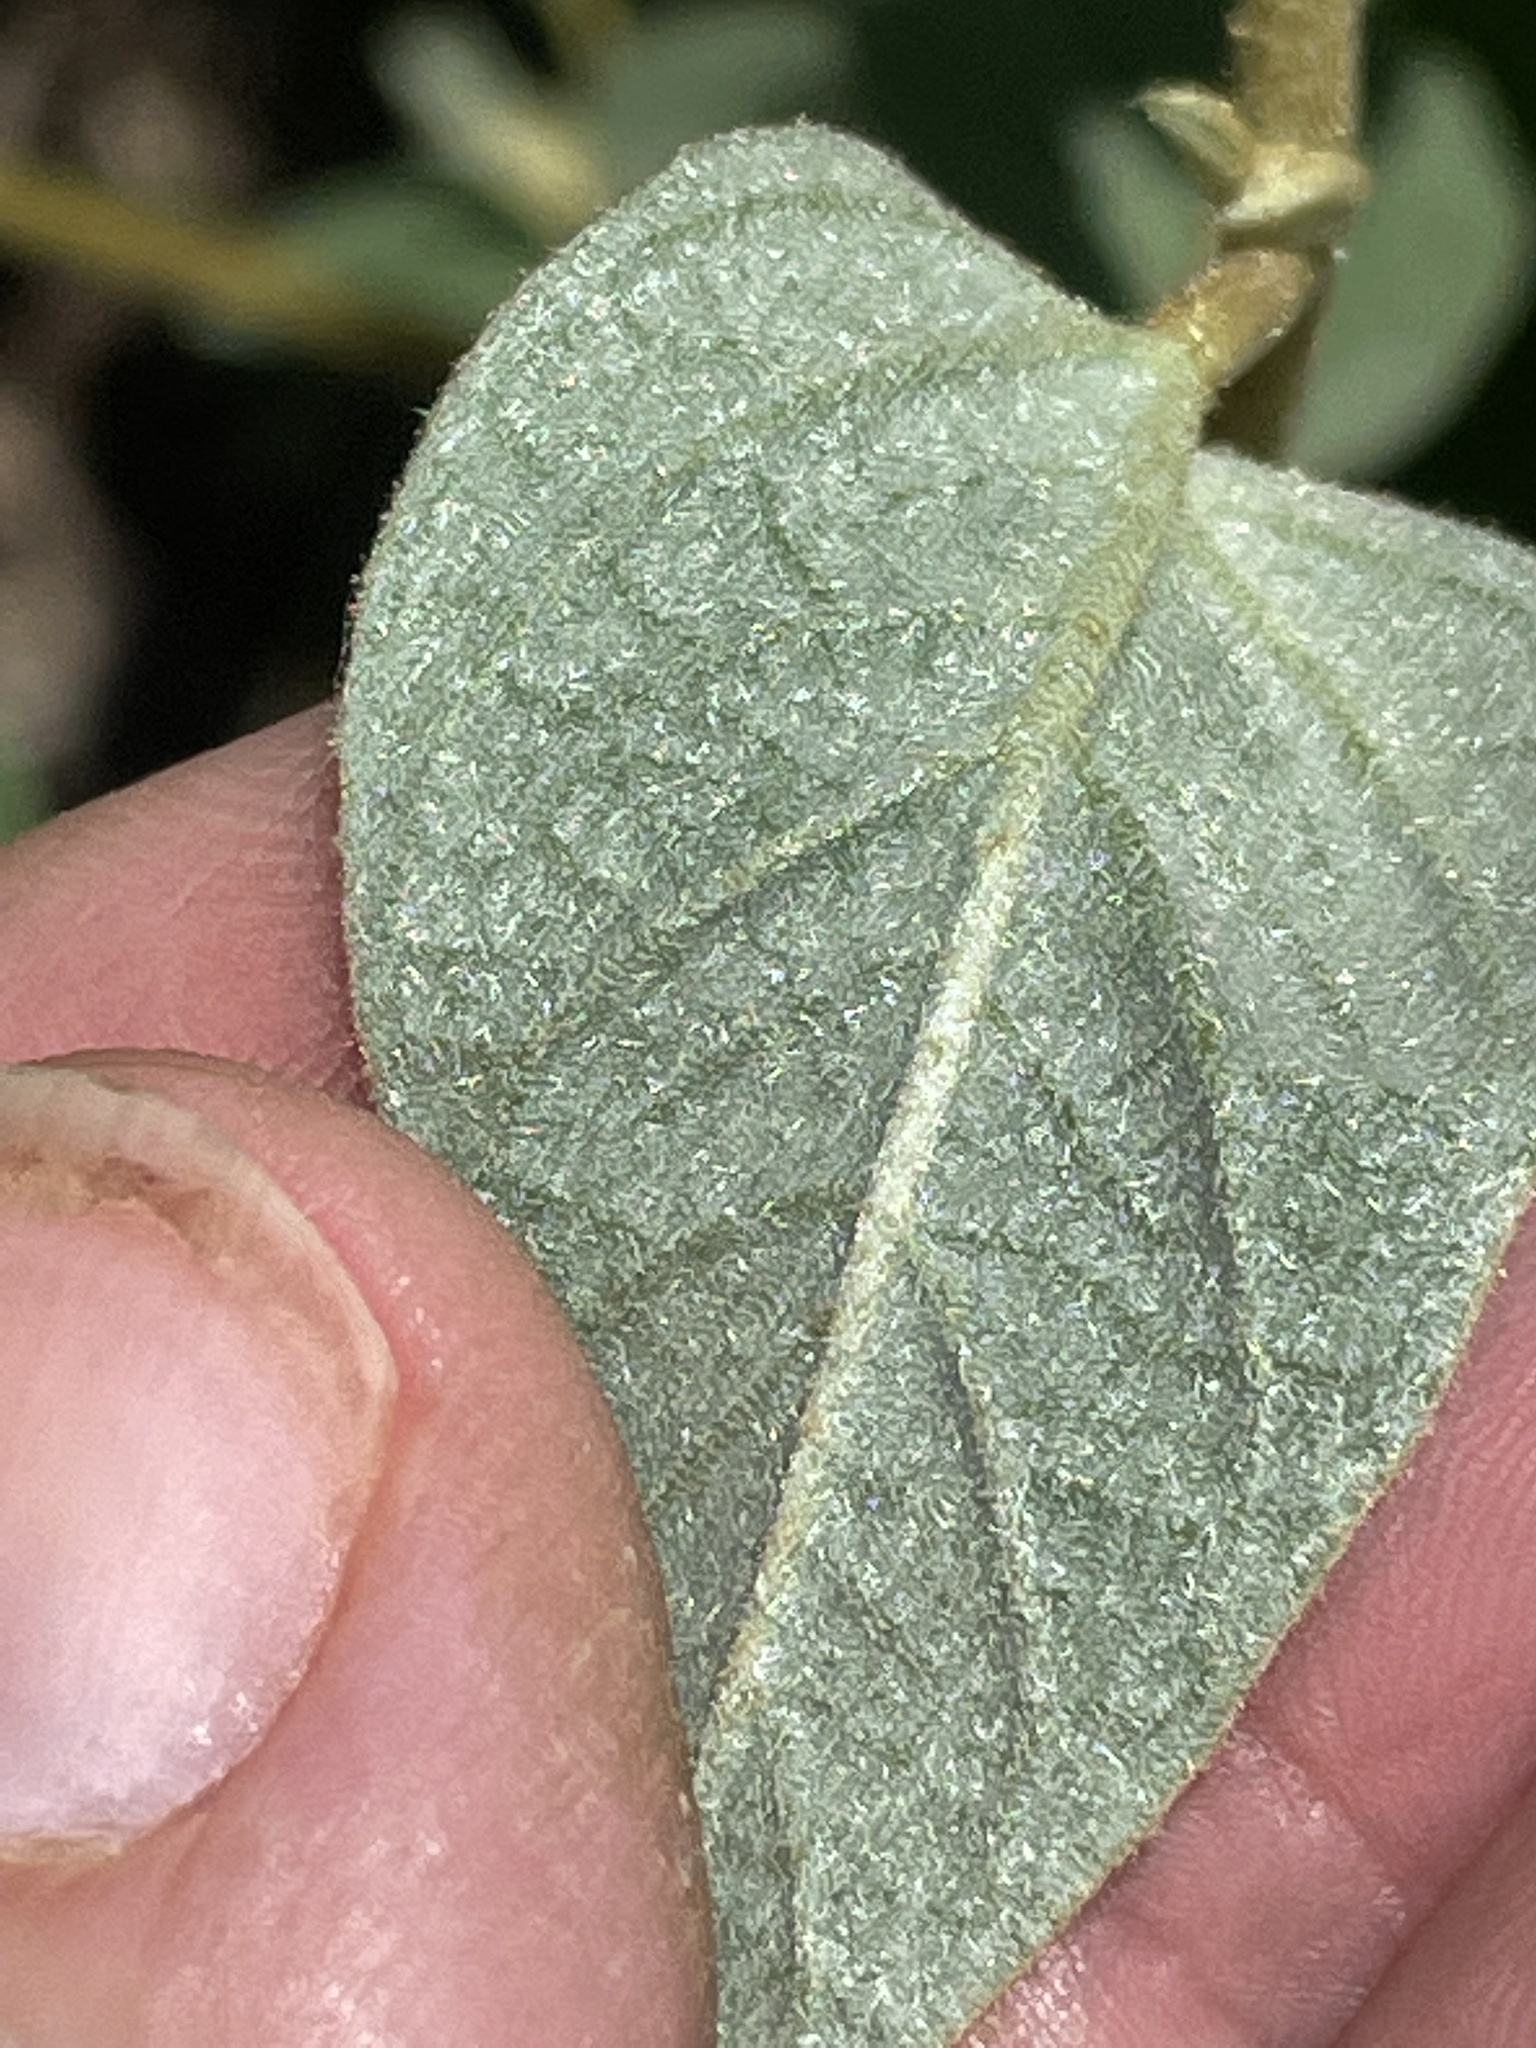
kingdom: Plantae
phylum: Tracheophyta
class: Magnoliopsida
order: Malpighiales
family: Euphorbiaceae
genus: Croton
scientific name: Croton lindheimeri
